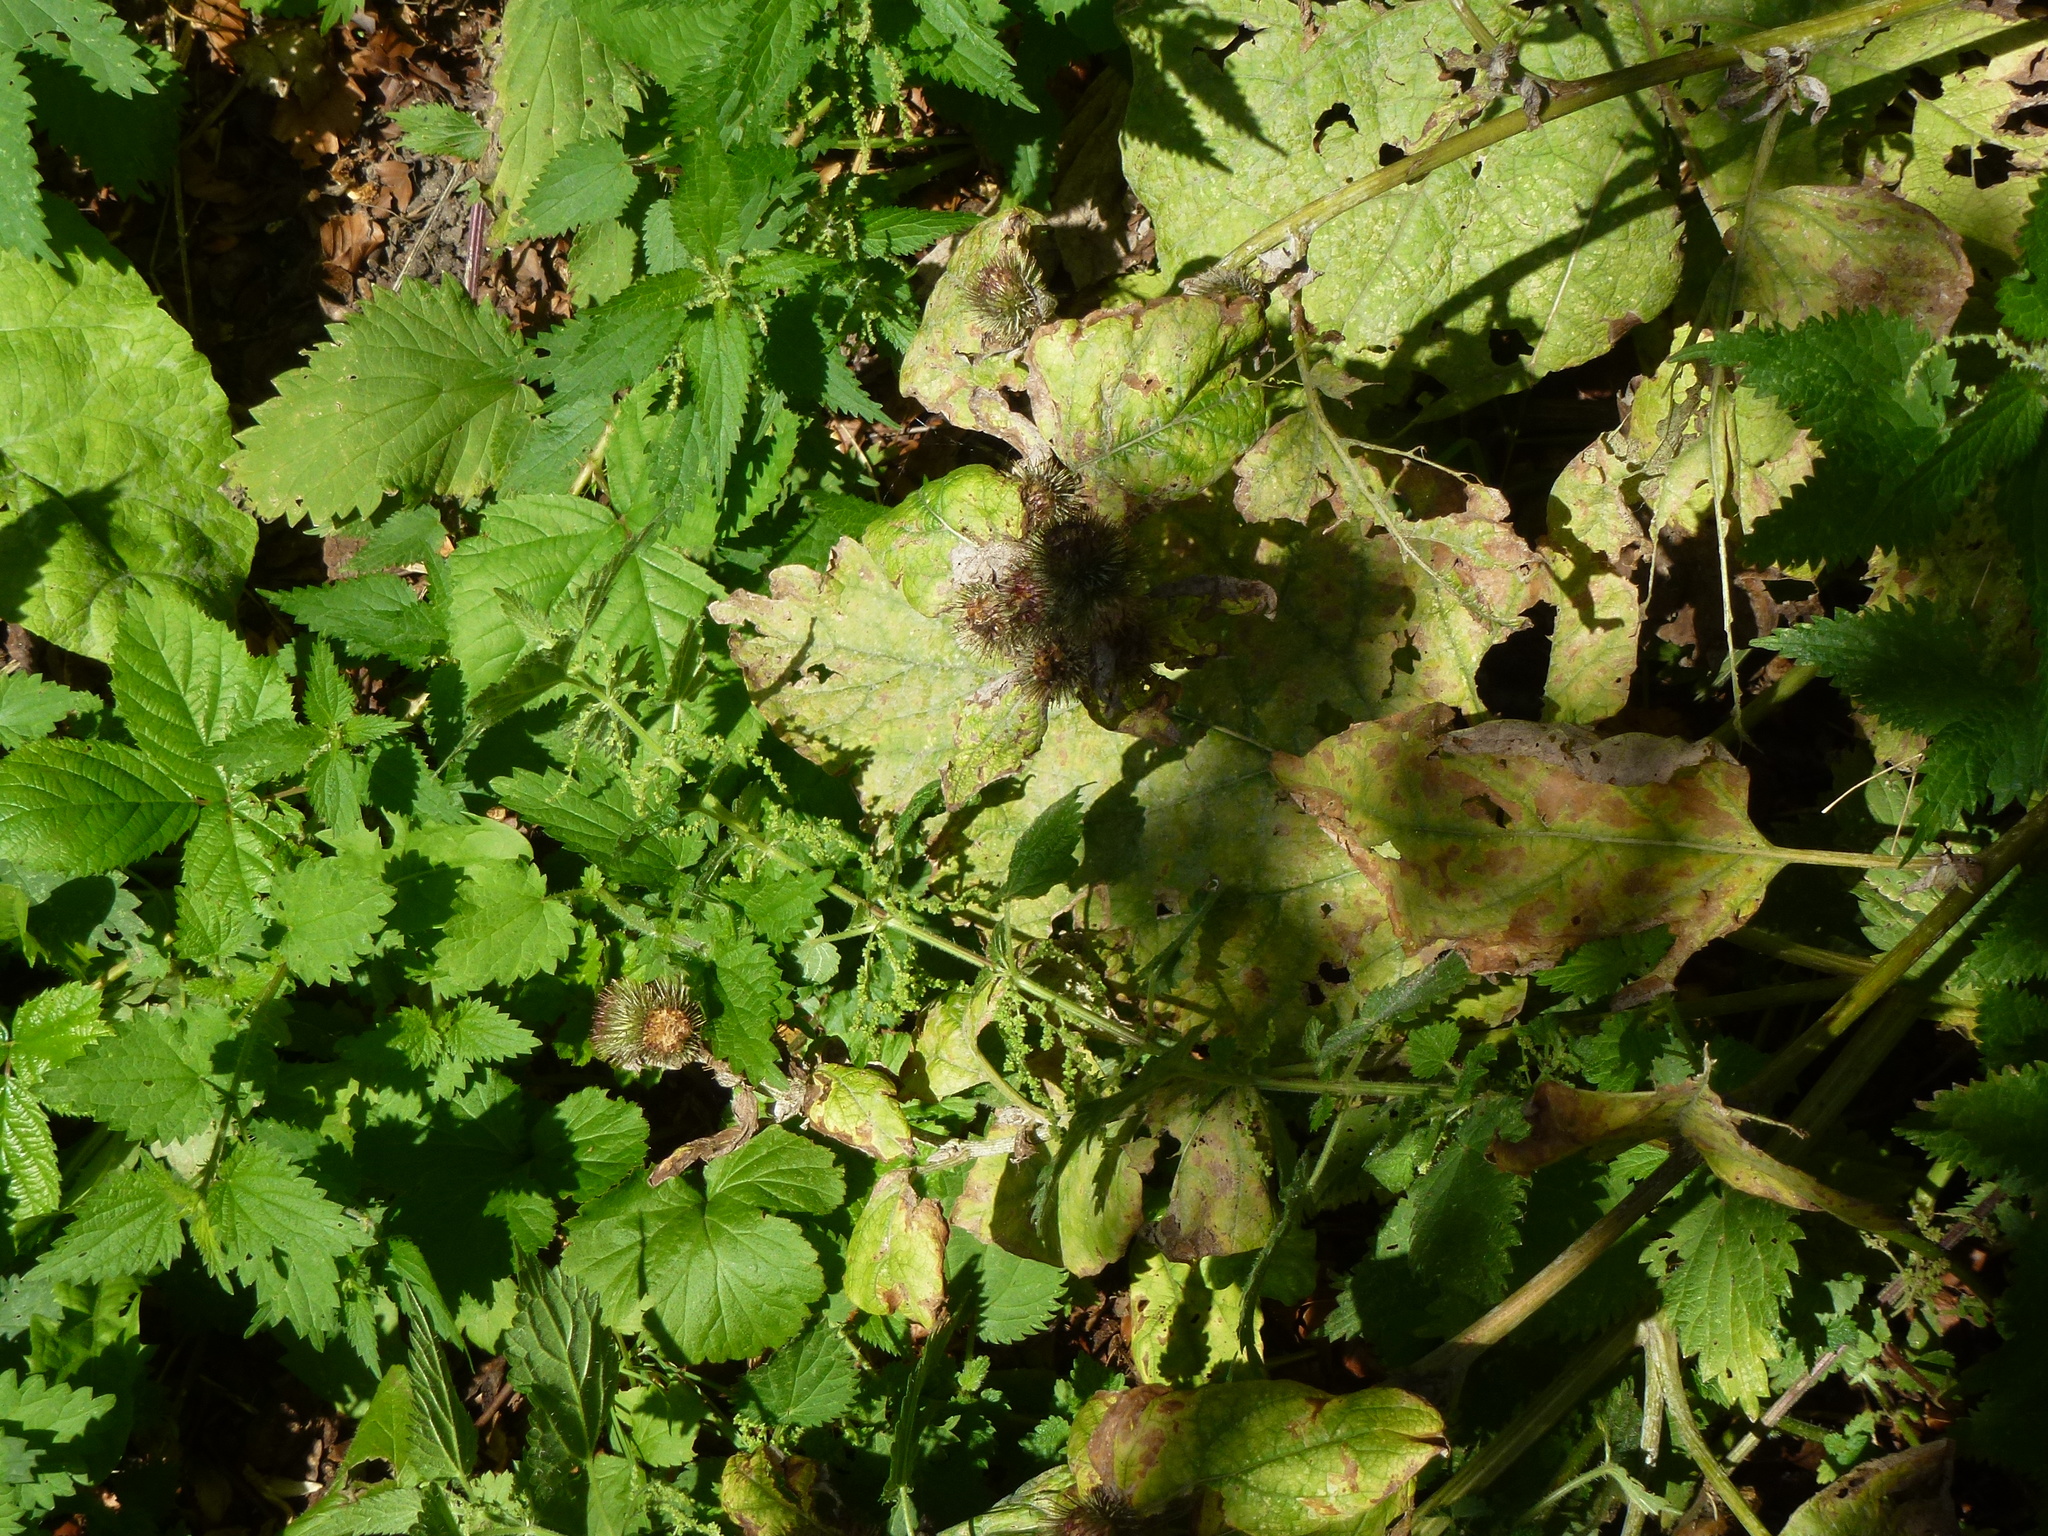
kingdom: Plantae
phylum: Tracheophyta
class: Magnoliopsida
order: Asterales
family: Asteraceae
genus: Arctium
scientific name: Arctium minus
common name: Lesser burdock
